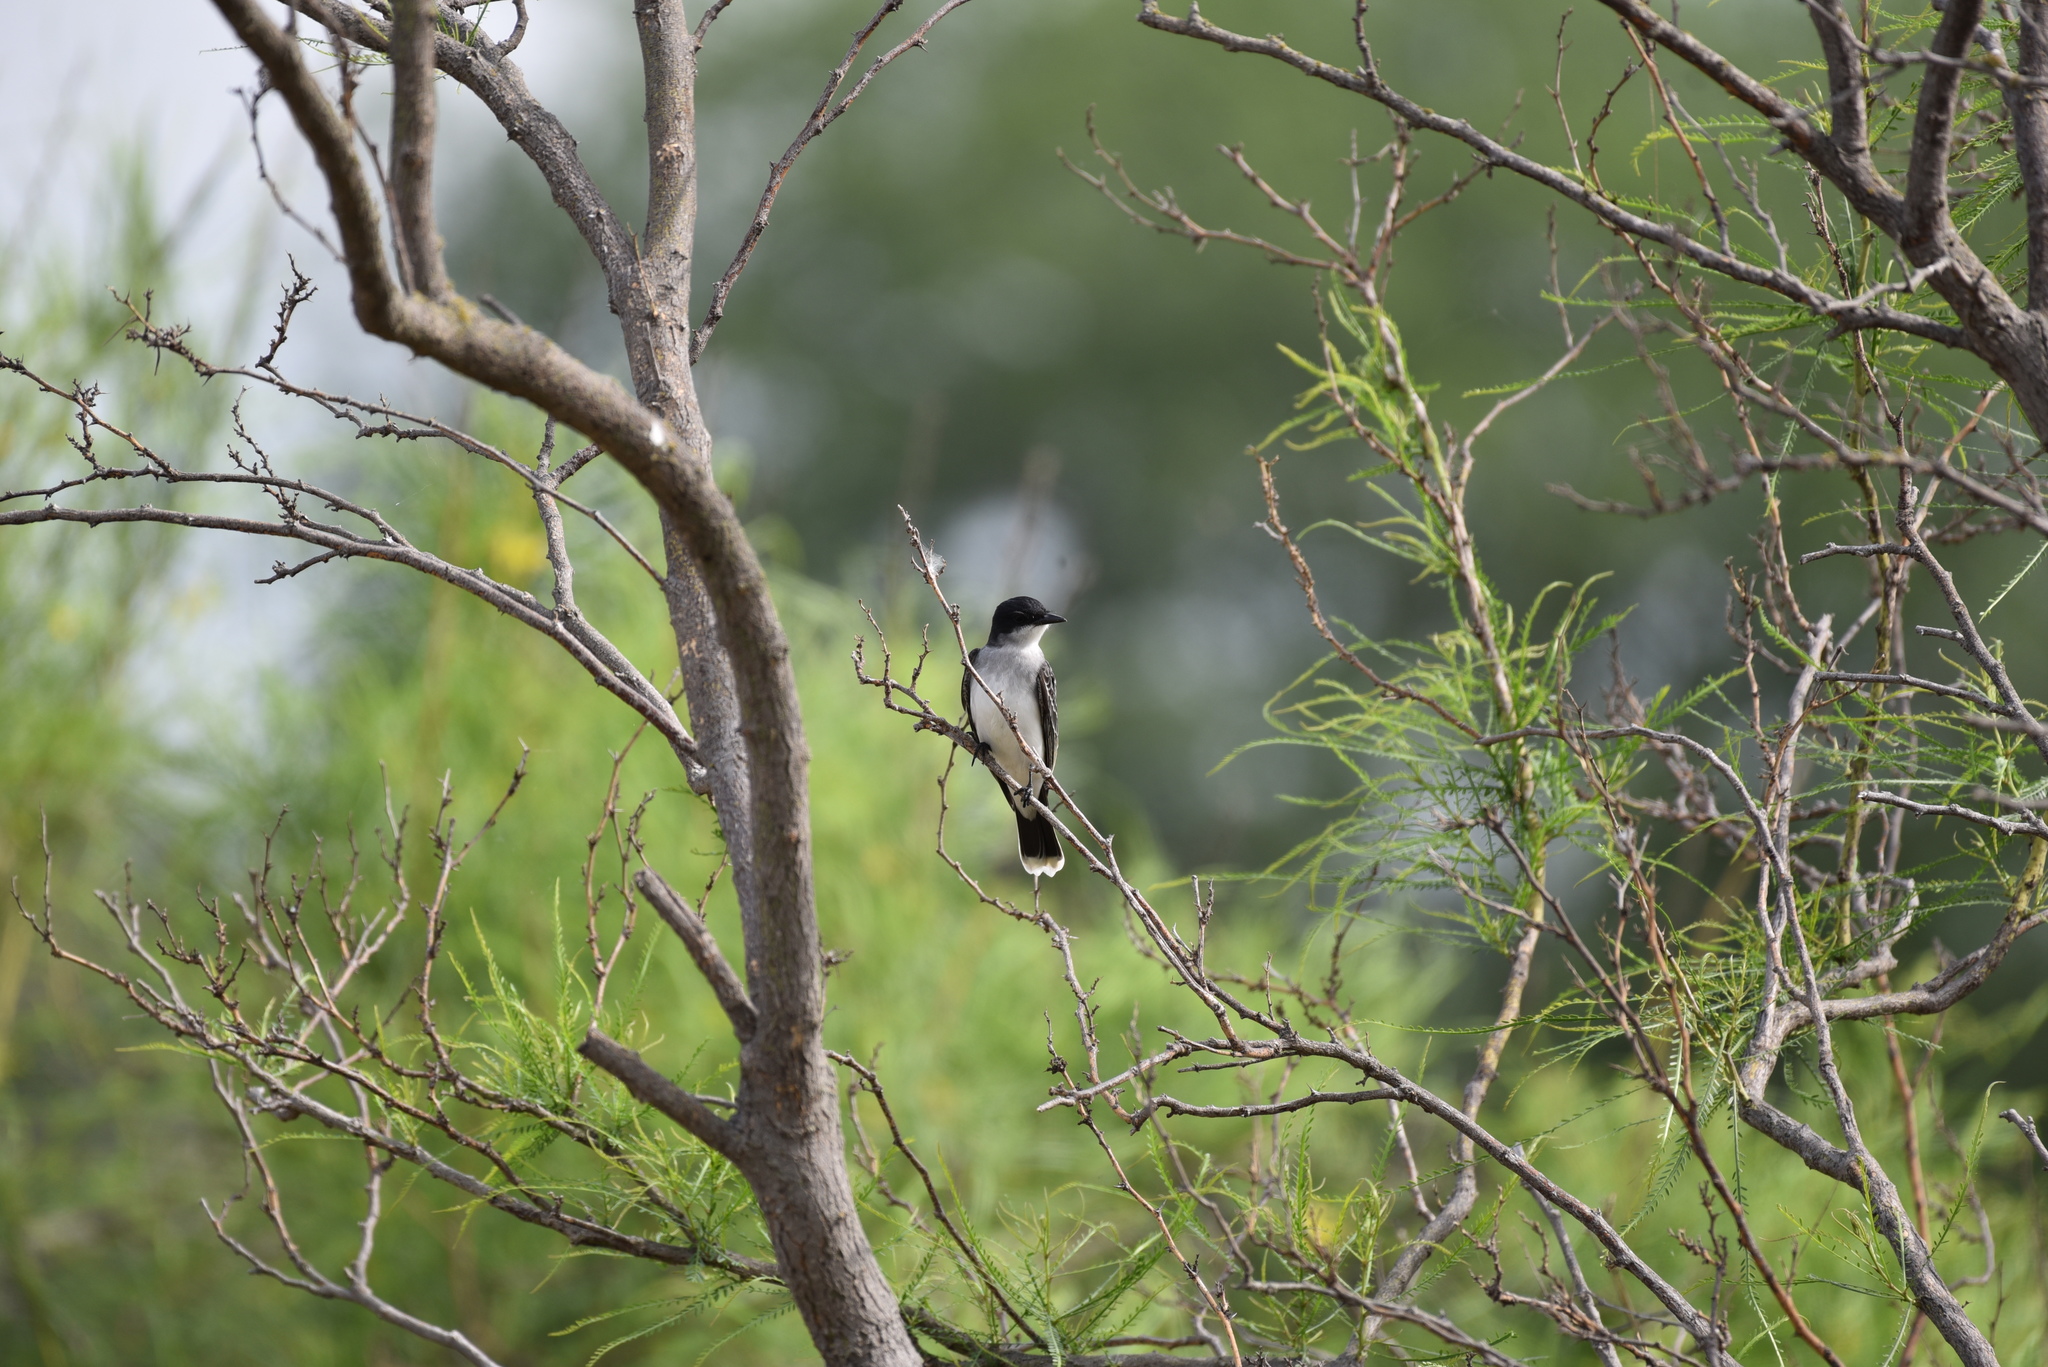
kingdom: Animalia
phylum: Chordata
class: Aves
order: Passeriformes
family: Tyrannidae
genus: Tyrannus
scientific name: Tyrannus tyrannus
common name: Eastern kingbird
